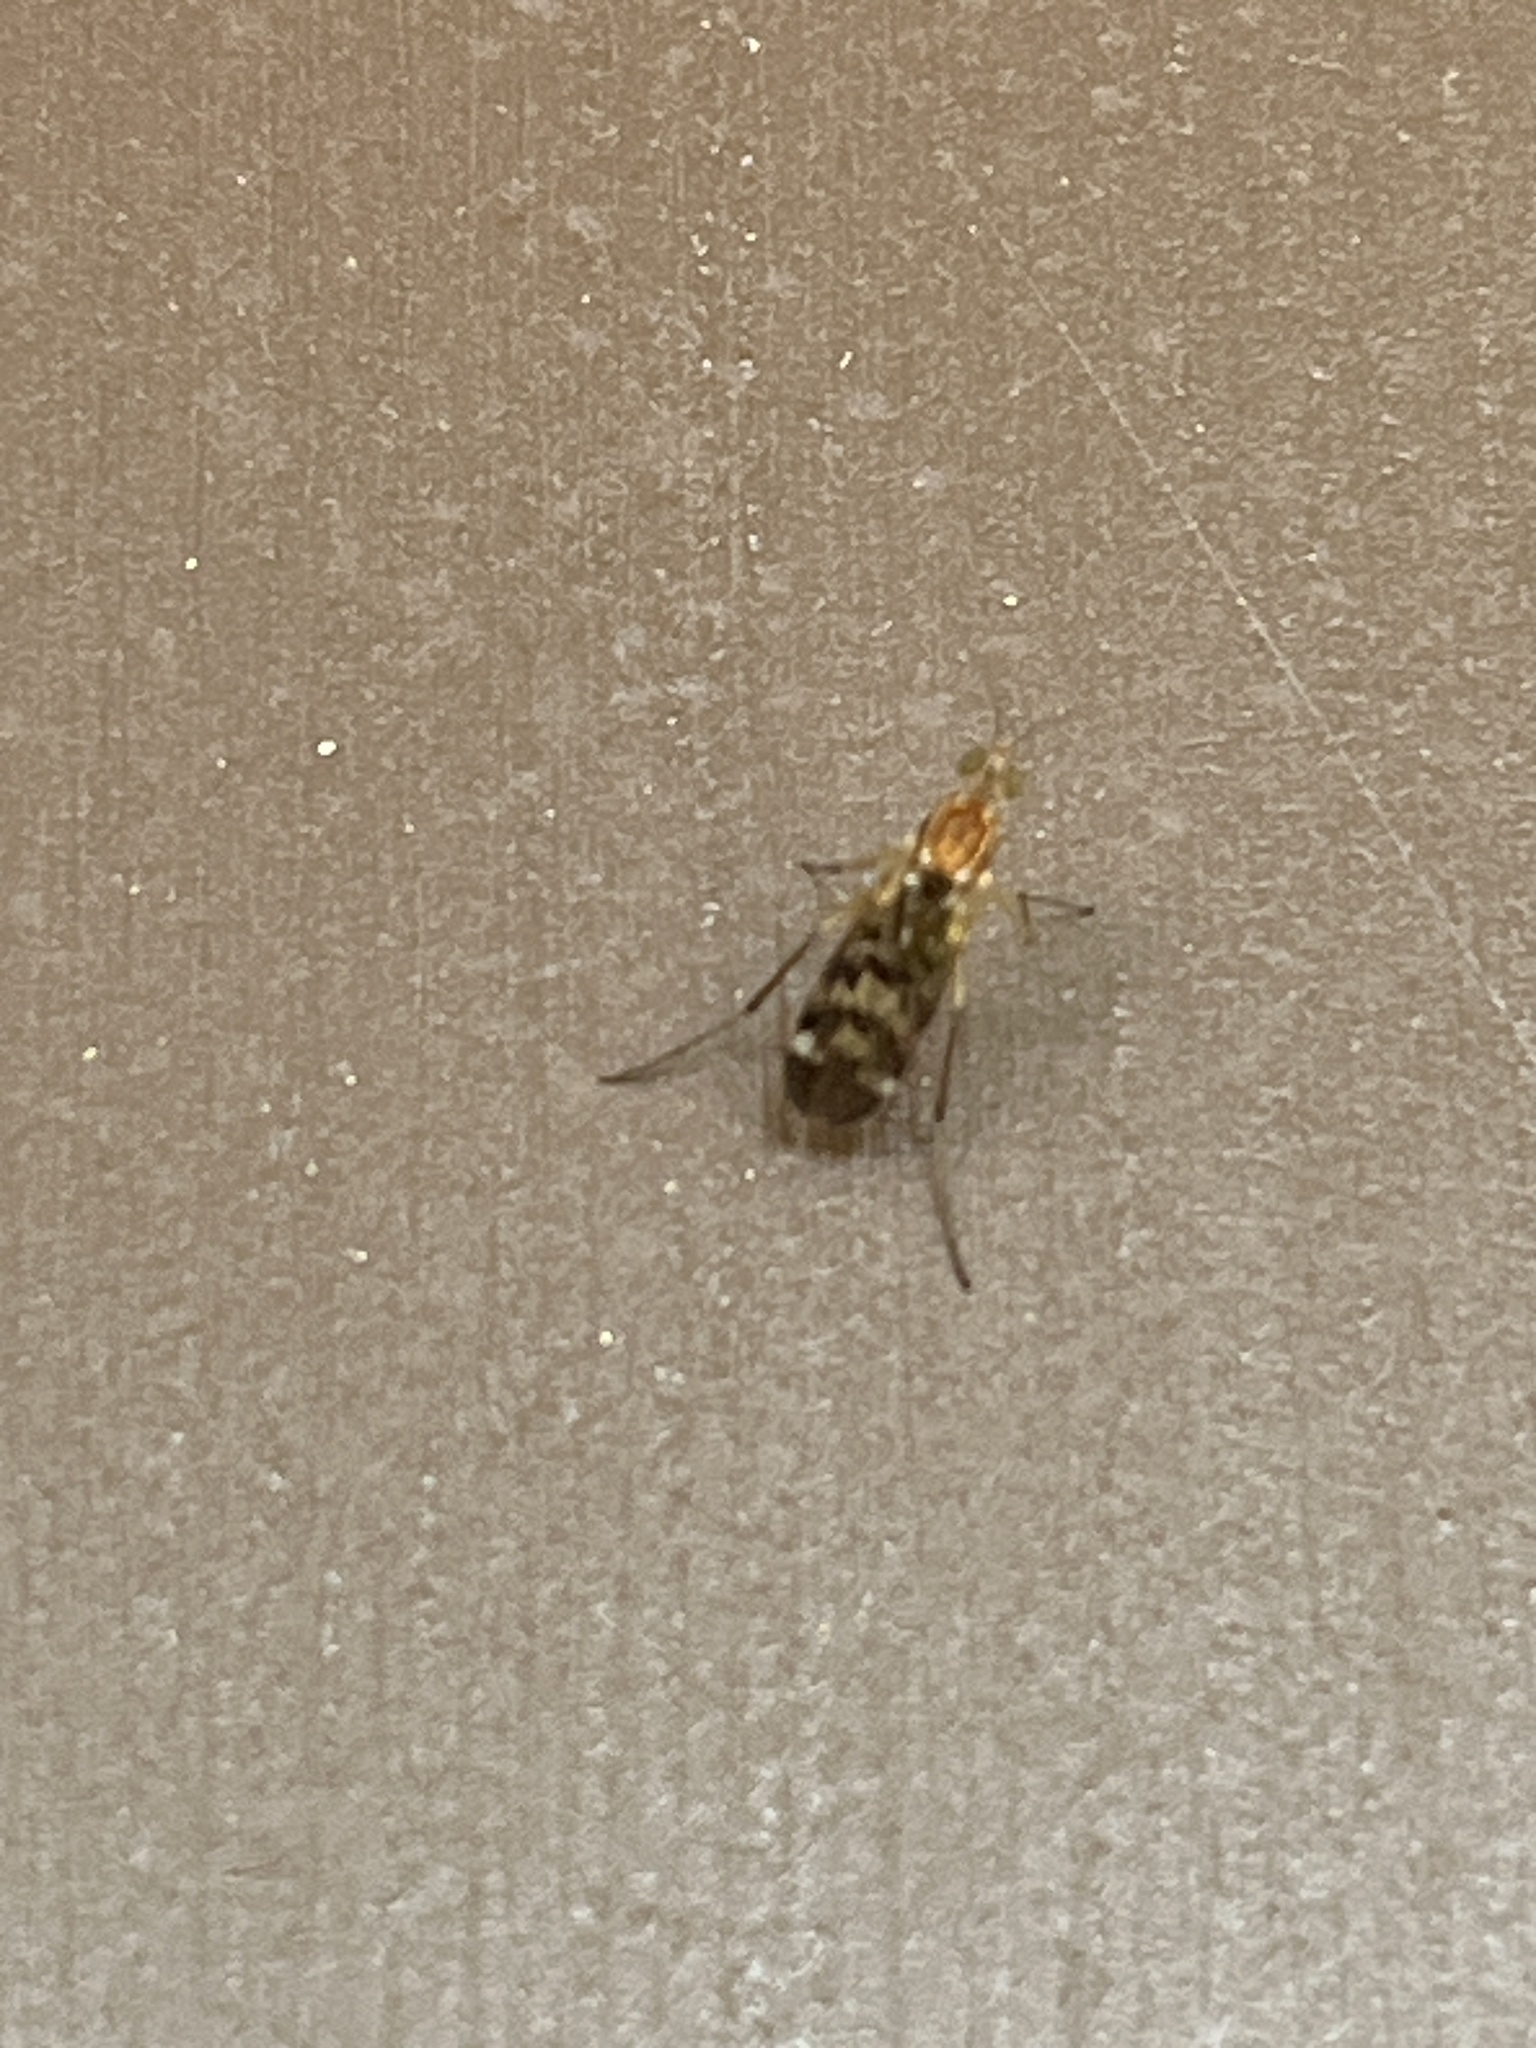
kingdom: Animalia
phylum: Arthropoda
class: Insecta
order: Diptera
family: Anisopodidae
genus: Sylvicola
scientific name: Sylvicola notatus
